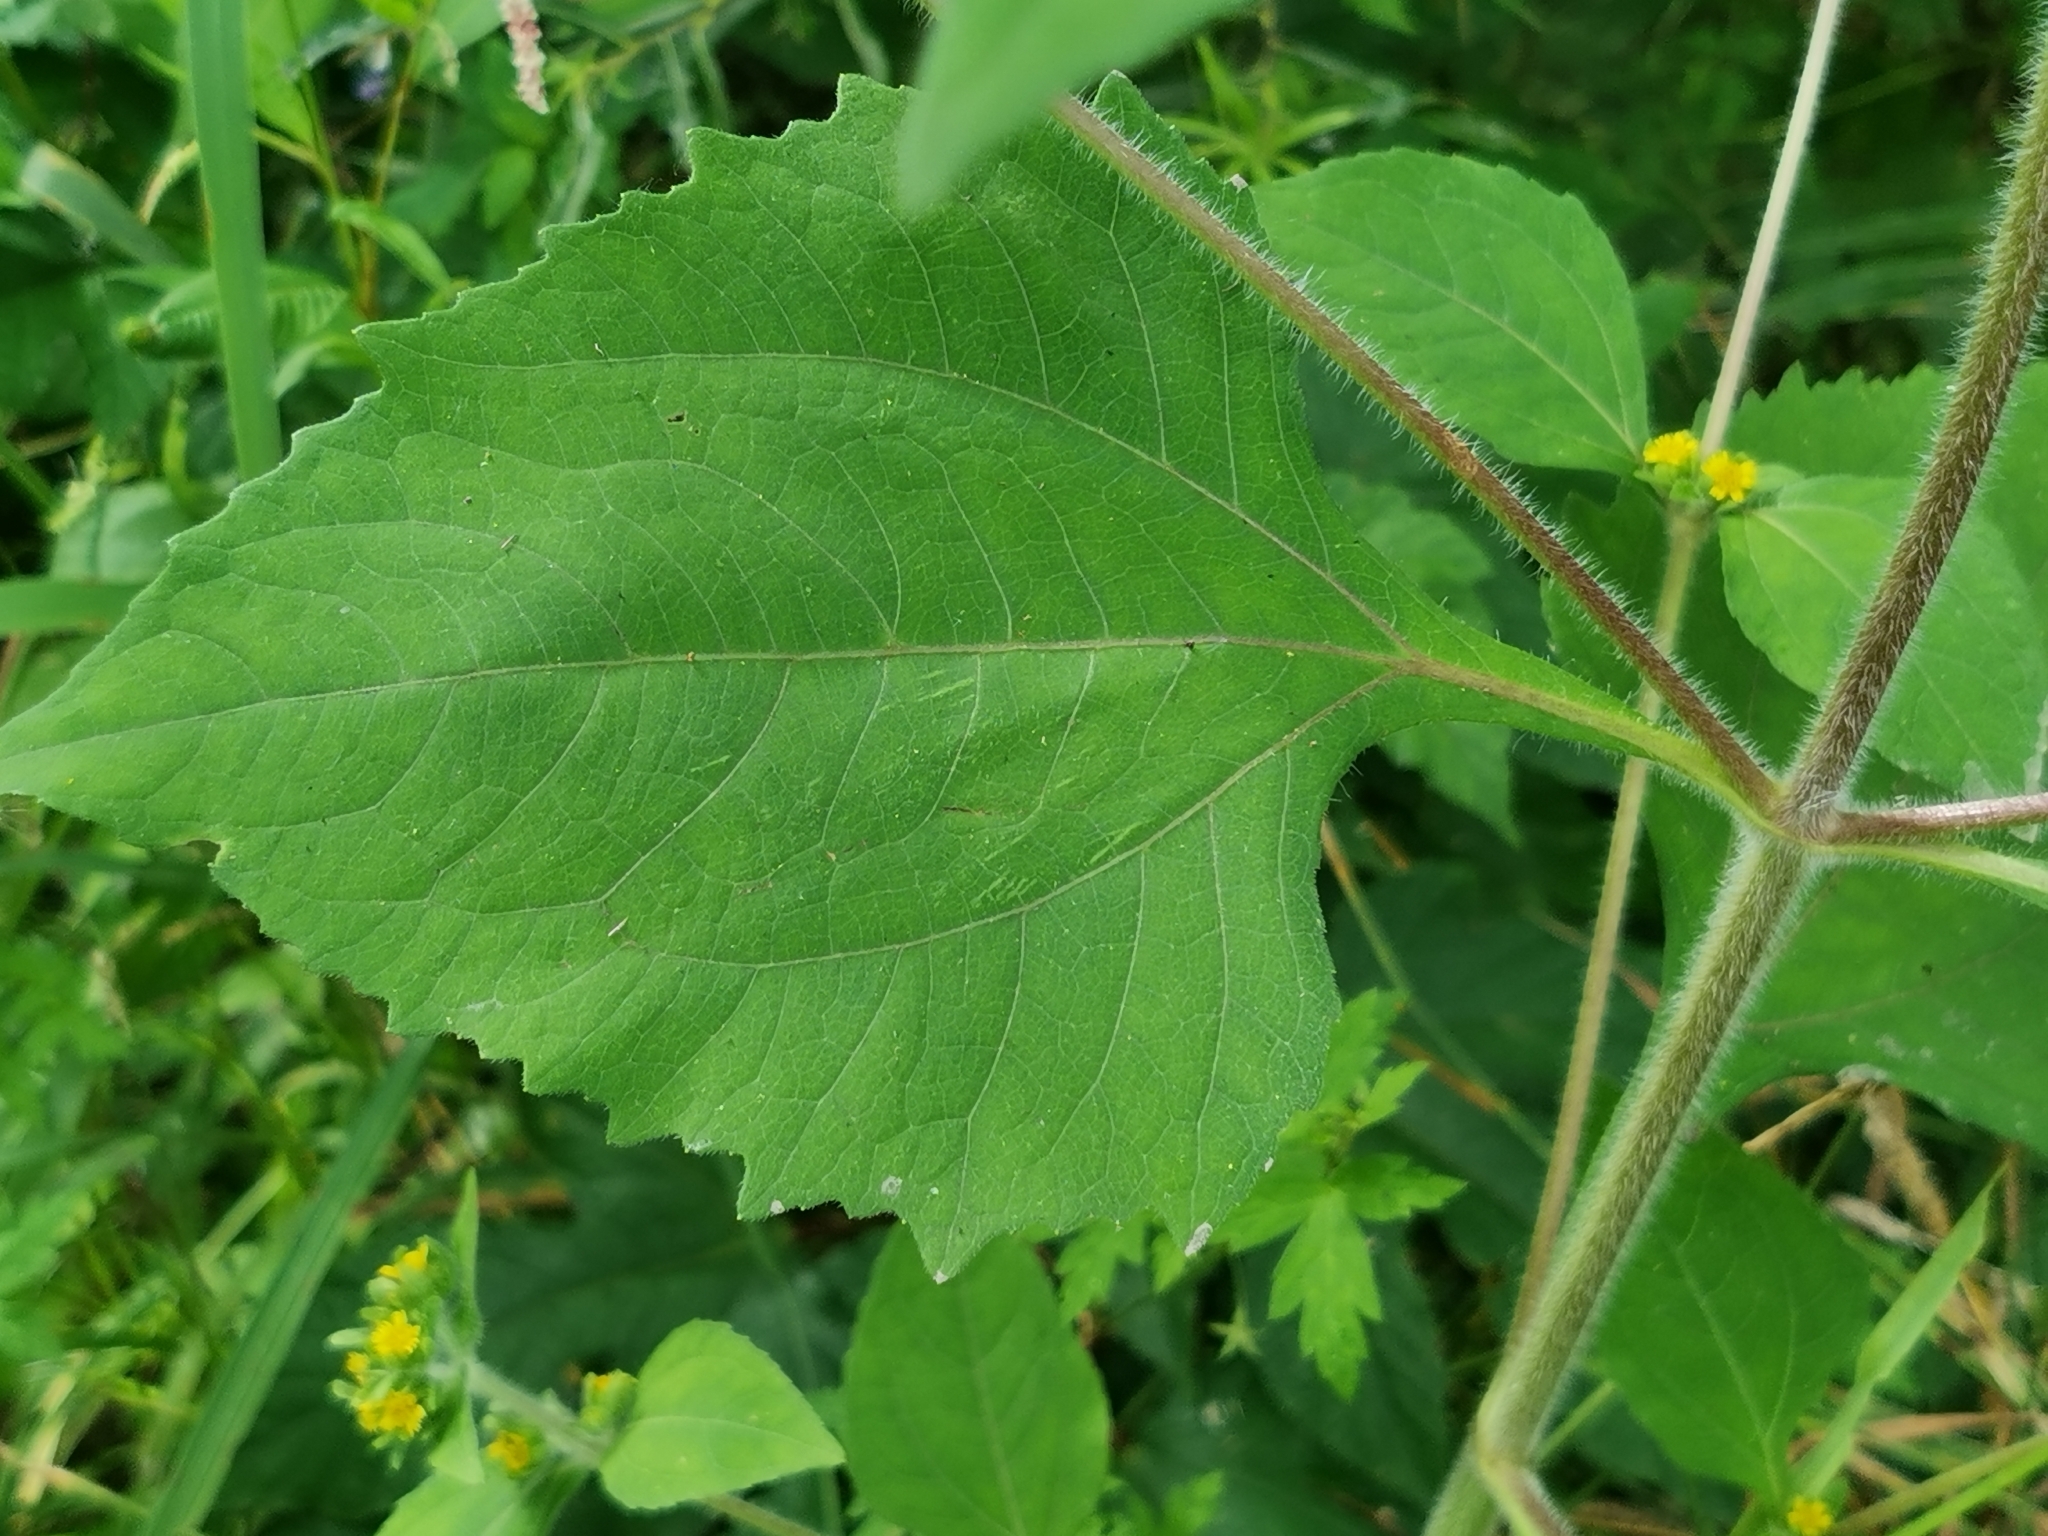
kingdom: Plantae
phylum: Tracheophyta
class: Magnoliopsida
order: Asterales
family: Asteraceae
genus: Sigesbeckia
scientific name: Sigesbeckia pubescens
